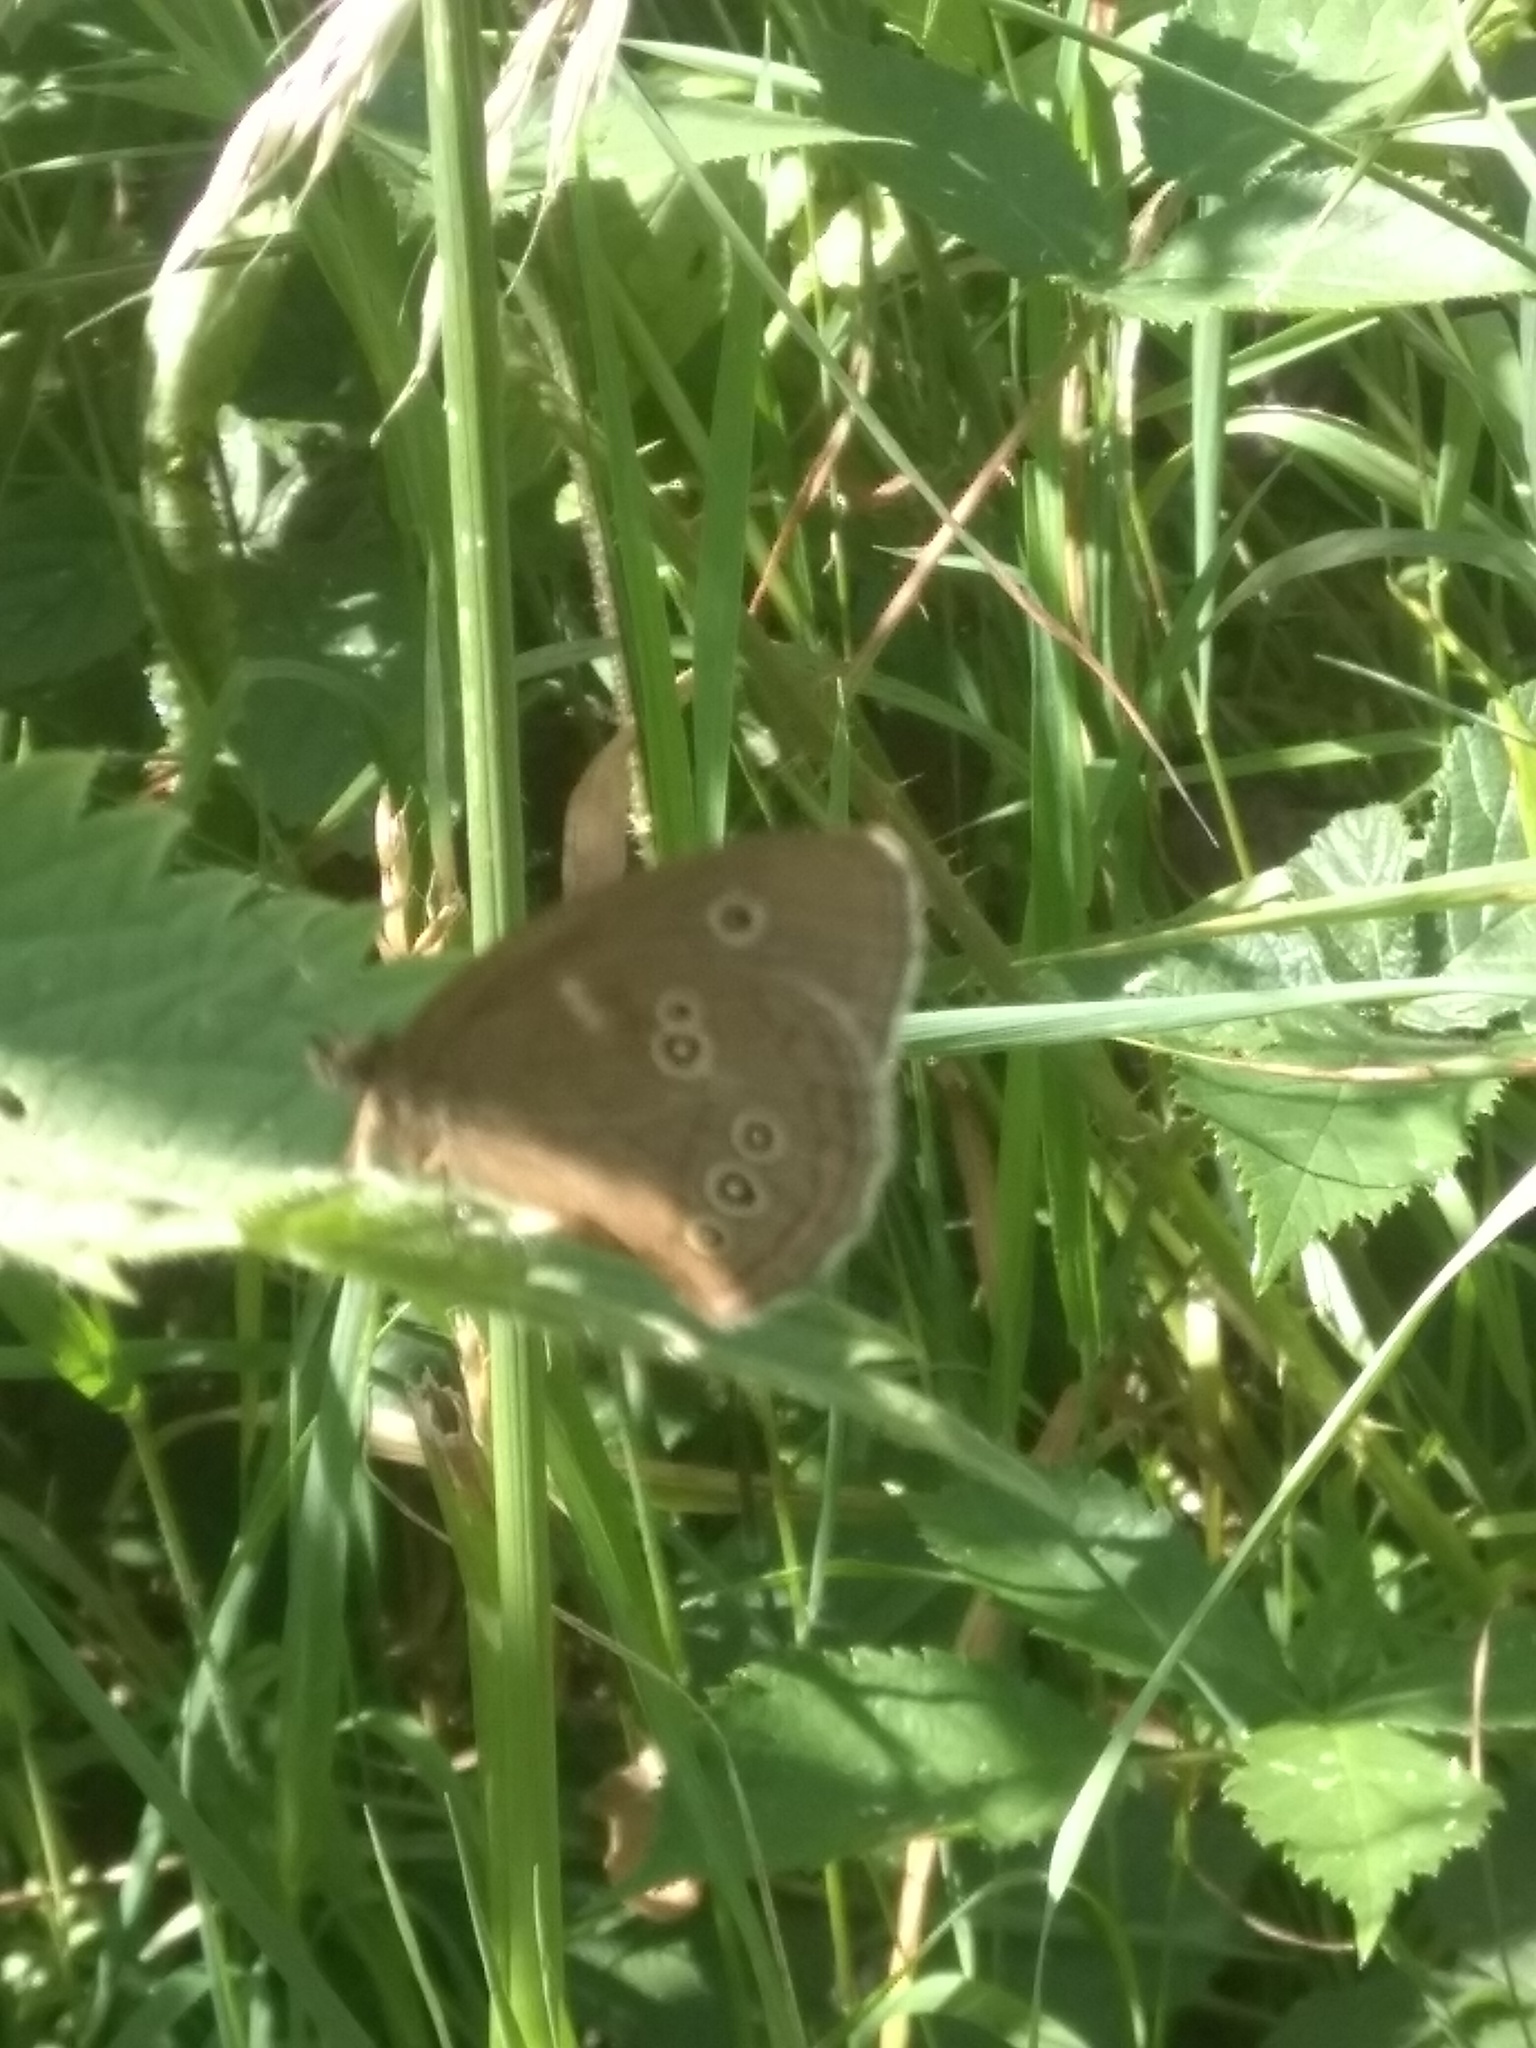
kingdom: Animalia
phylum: Arthropoda
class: Insecta
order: Lepidoptera
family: Nymphalidae
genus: Aphantopus
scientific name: Aphantopus hyperantus
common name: Ringlet
